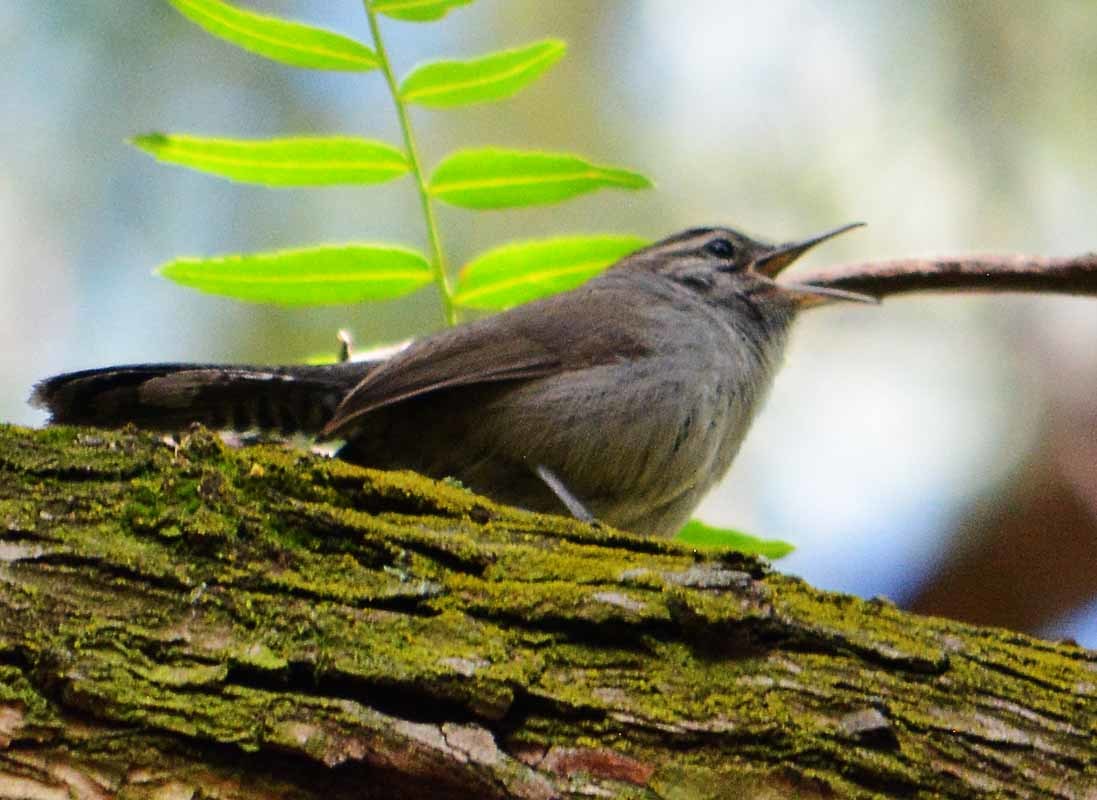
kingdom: Animalia
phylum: Chordata
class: Aves
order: Passeriformes
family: Troglodytidae
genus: Thryomanes
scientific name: Thryomanes bewickii
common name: Bewick's wren
